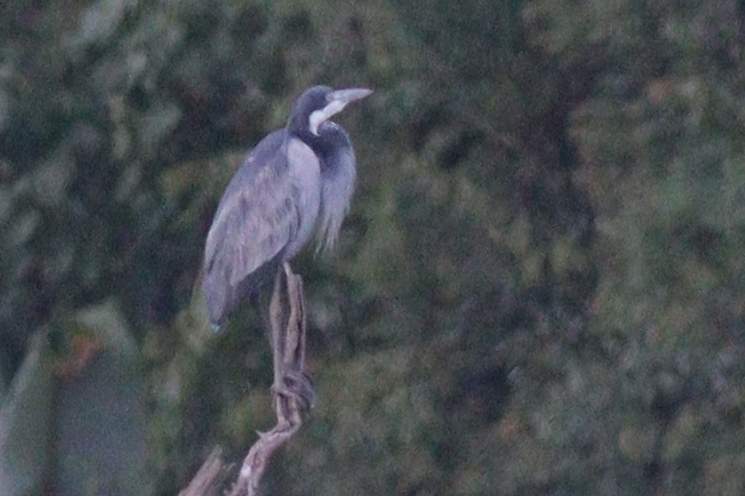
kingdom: Animalia
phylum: Chordata
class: Aves
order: Pelecaniformes
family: Ardeidae
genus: Ardea
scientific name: Ardea melanocephala
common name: Black-headed heron
